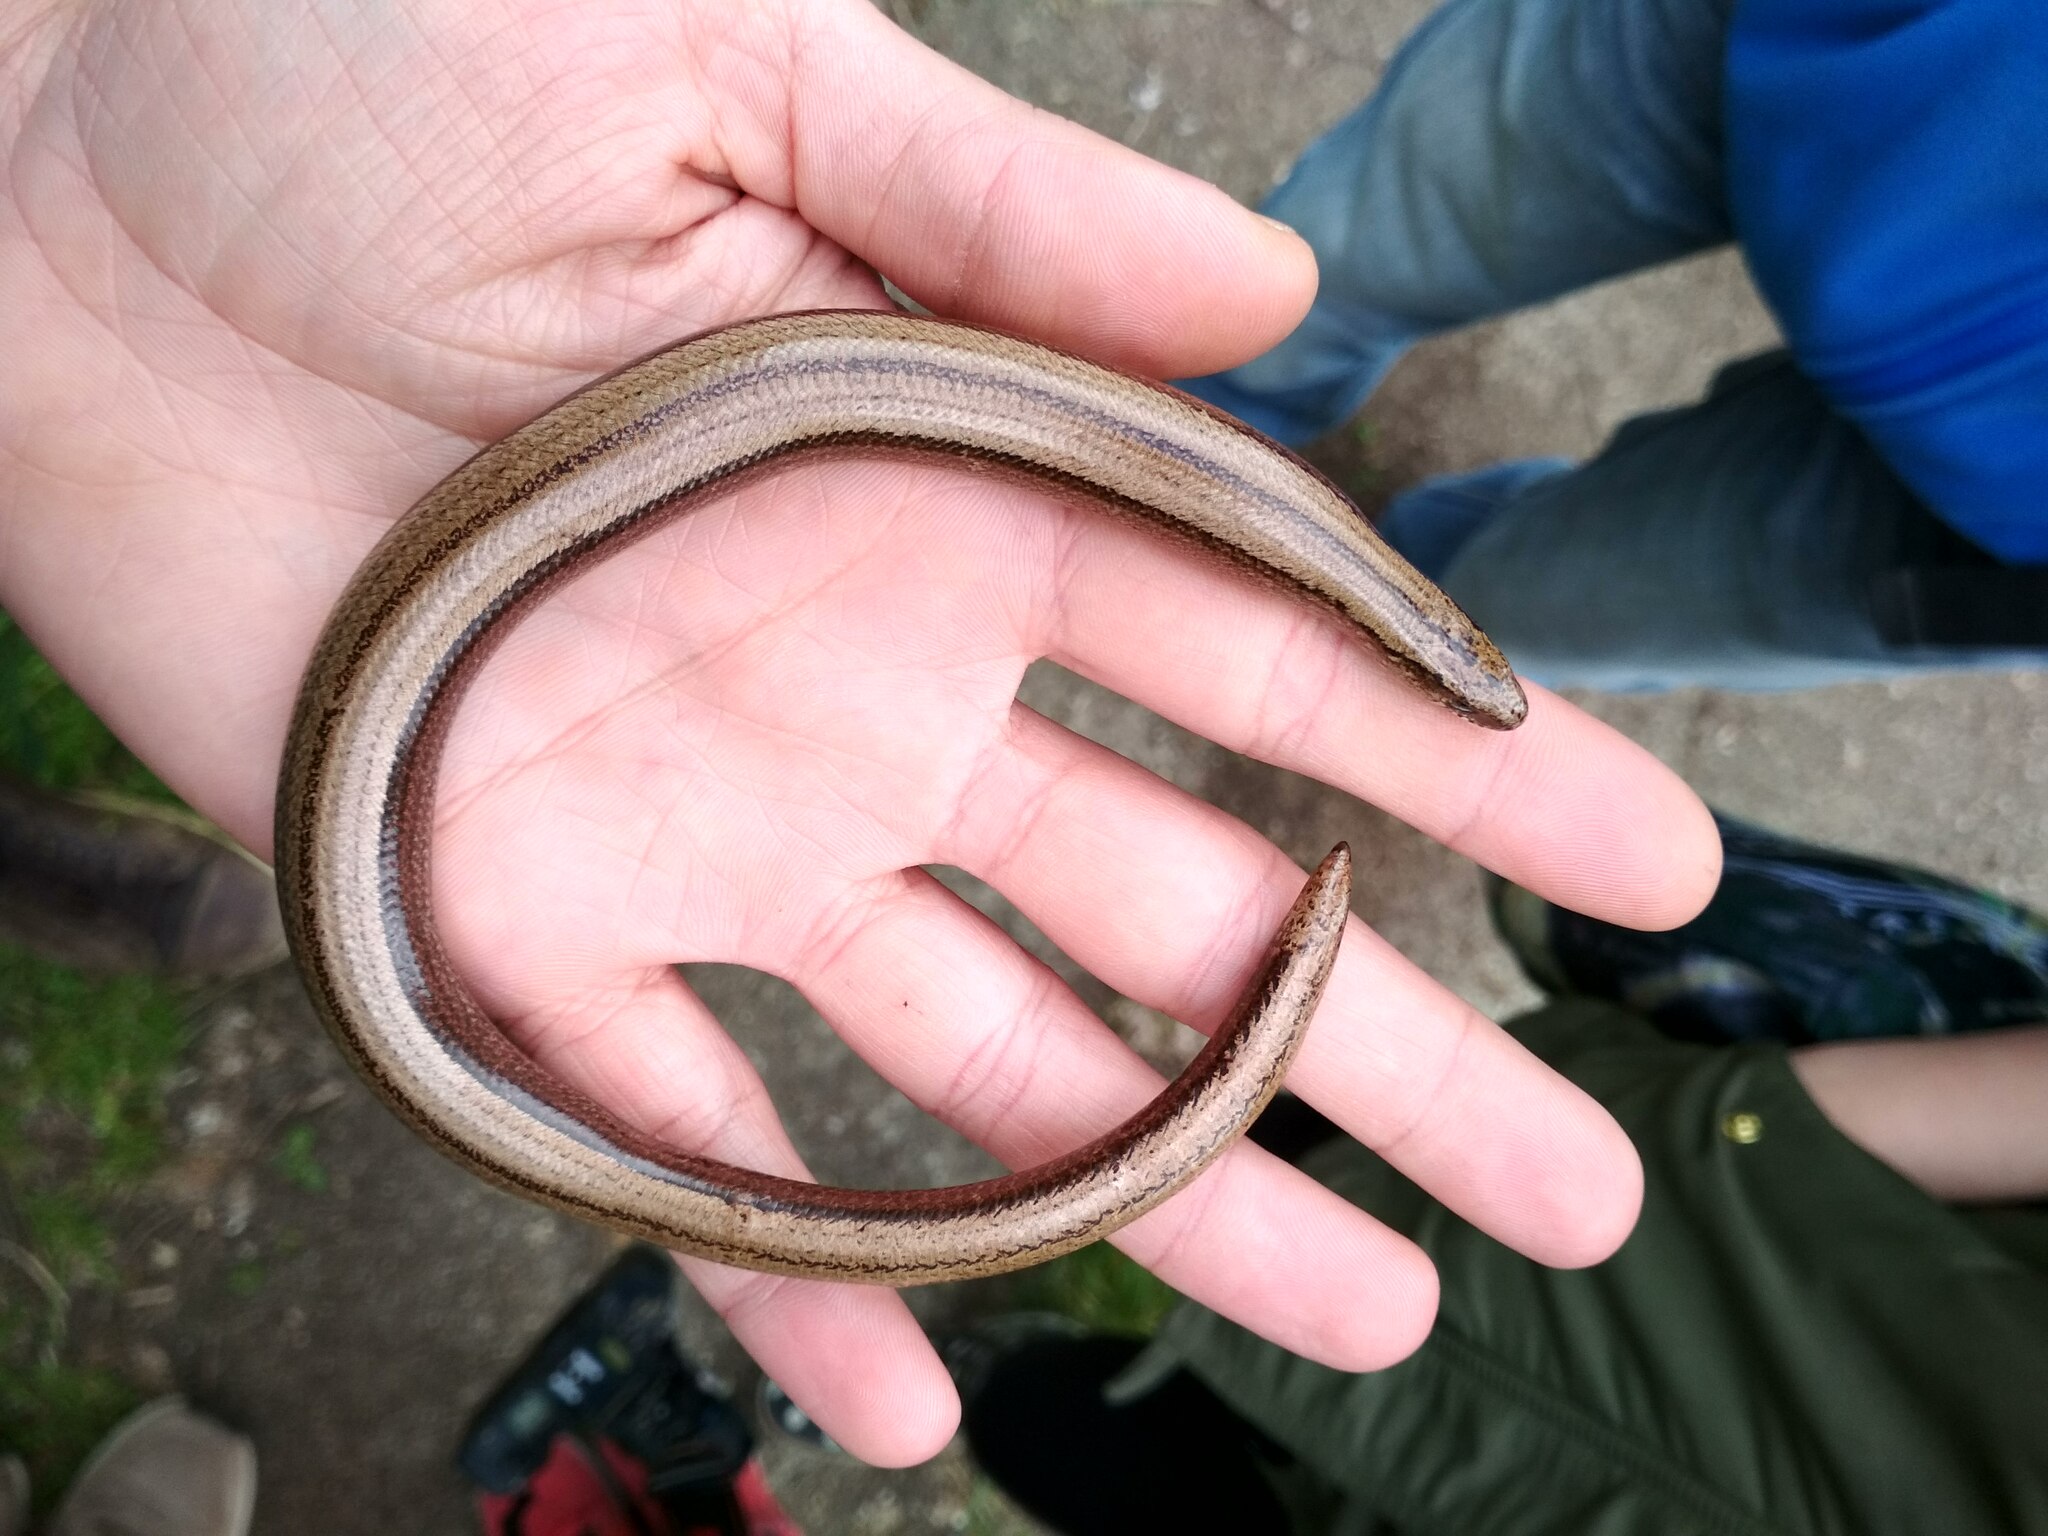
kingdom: Animalia
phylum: Chordata
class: Squamata
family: Anguidae
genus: Anguis
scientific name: Anguis fragilis
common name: Slow worm
